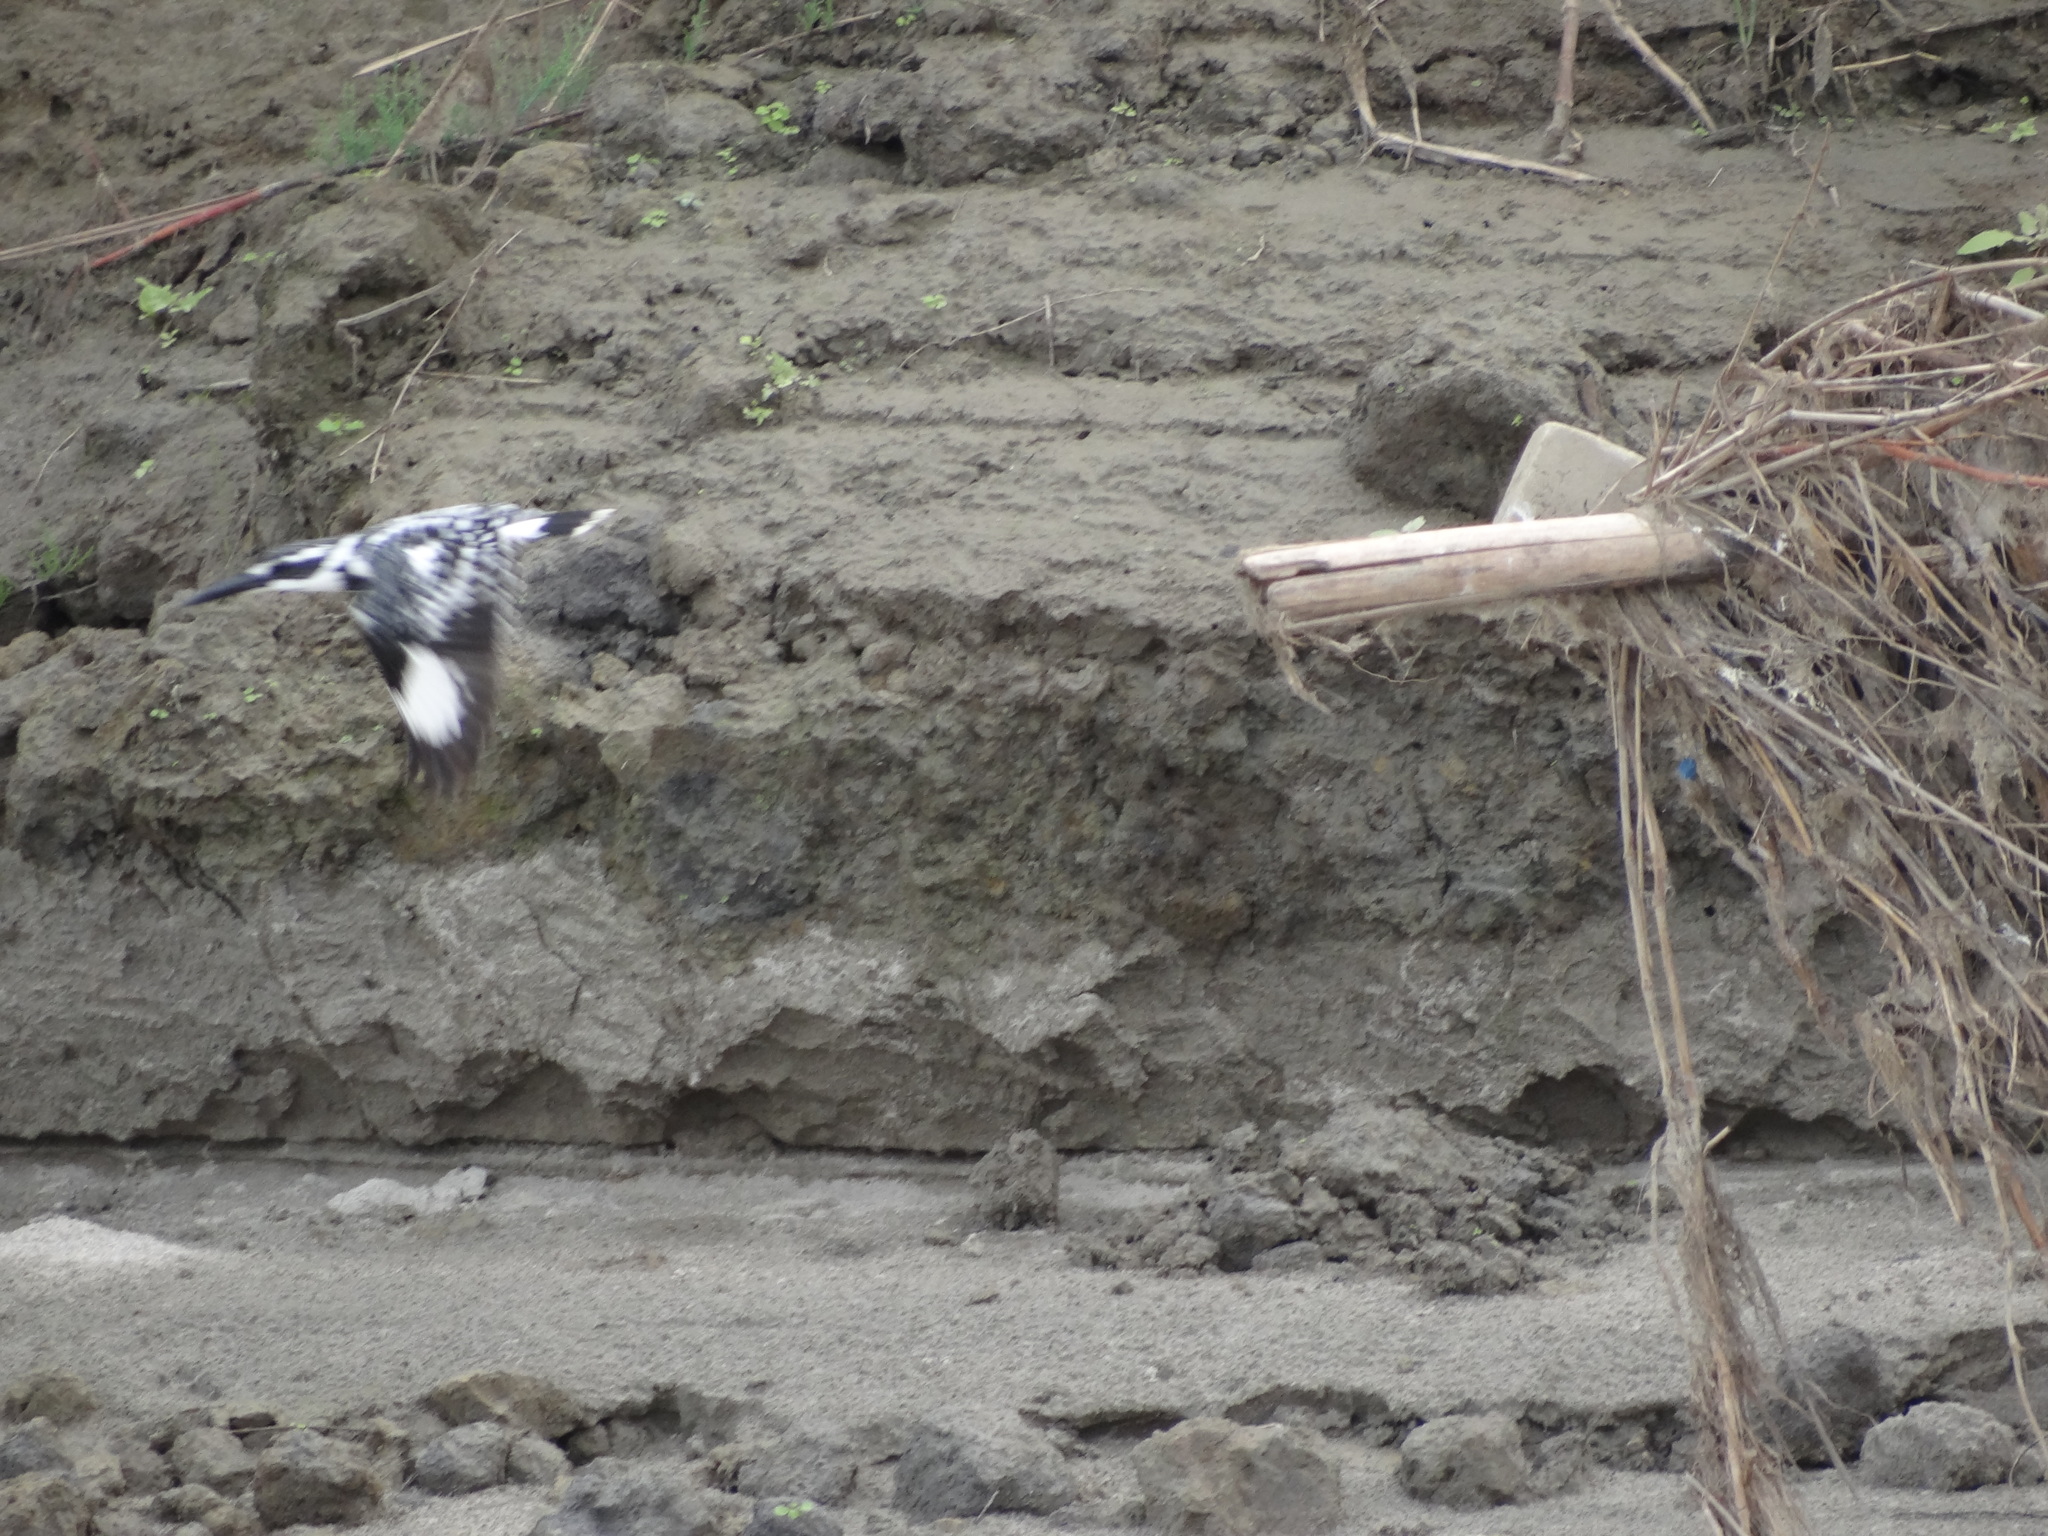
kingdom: Animalia
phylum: Chordata
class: Aves
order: Coraciiformes
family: Alcedinidae
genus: Ceryle
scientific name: Ceryle rudis
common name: Pied kingfisher
